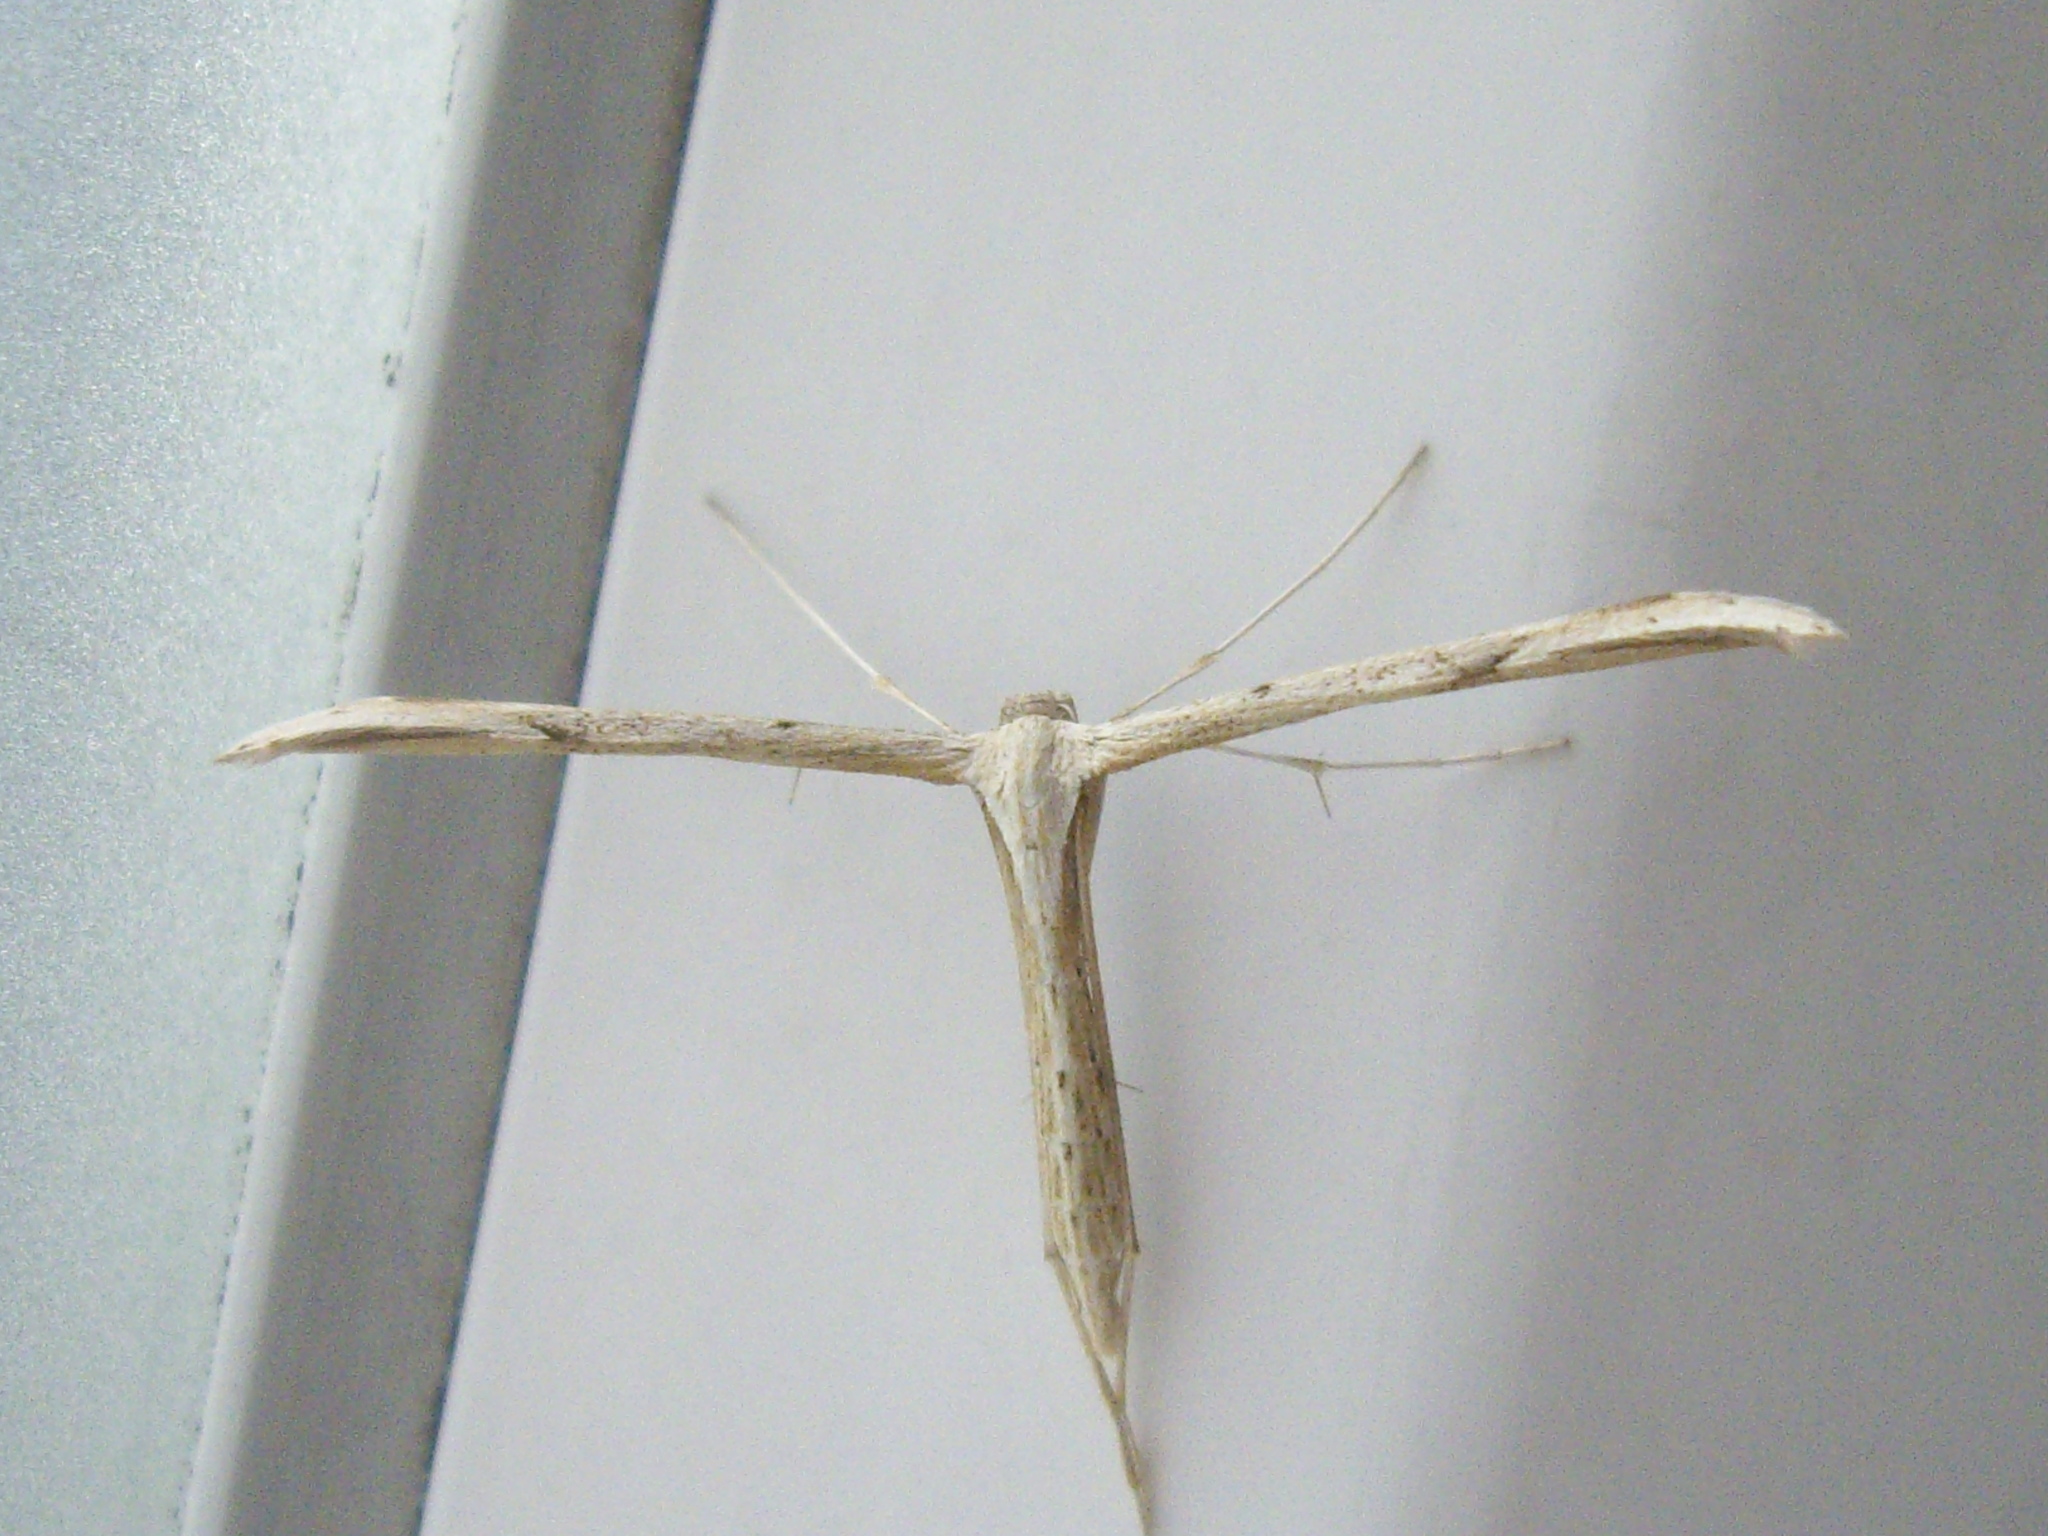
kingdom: Animalia
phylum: Arthropoda
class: Insecta
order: Lepidoptera
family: Pterophoridae
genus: Emmelina
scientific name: Emmelina monodactyla
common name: Common plume
